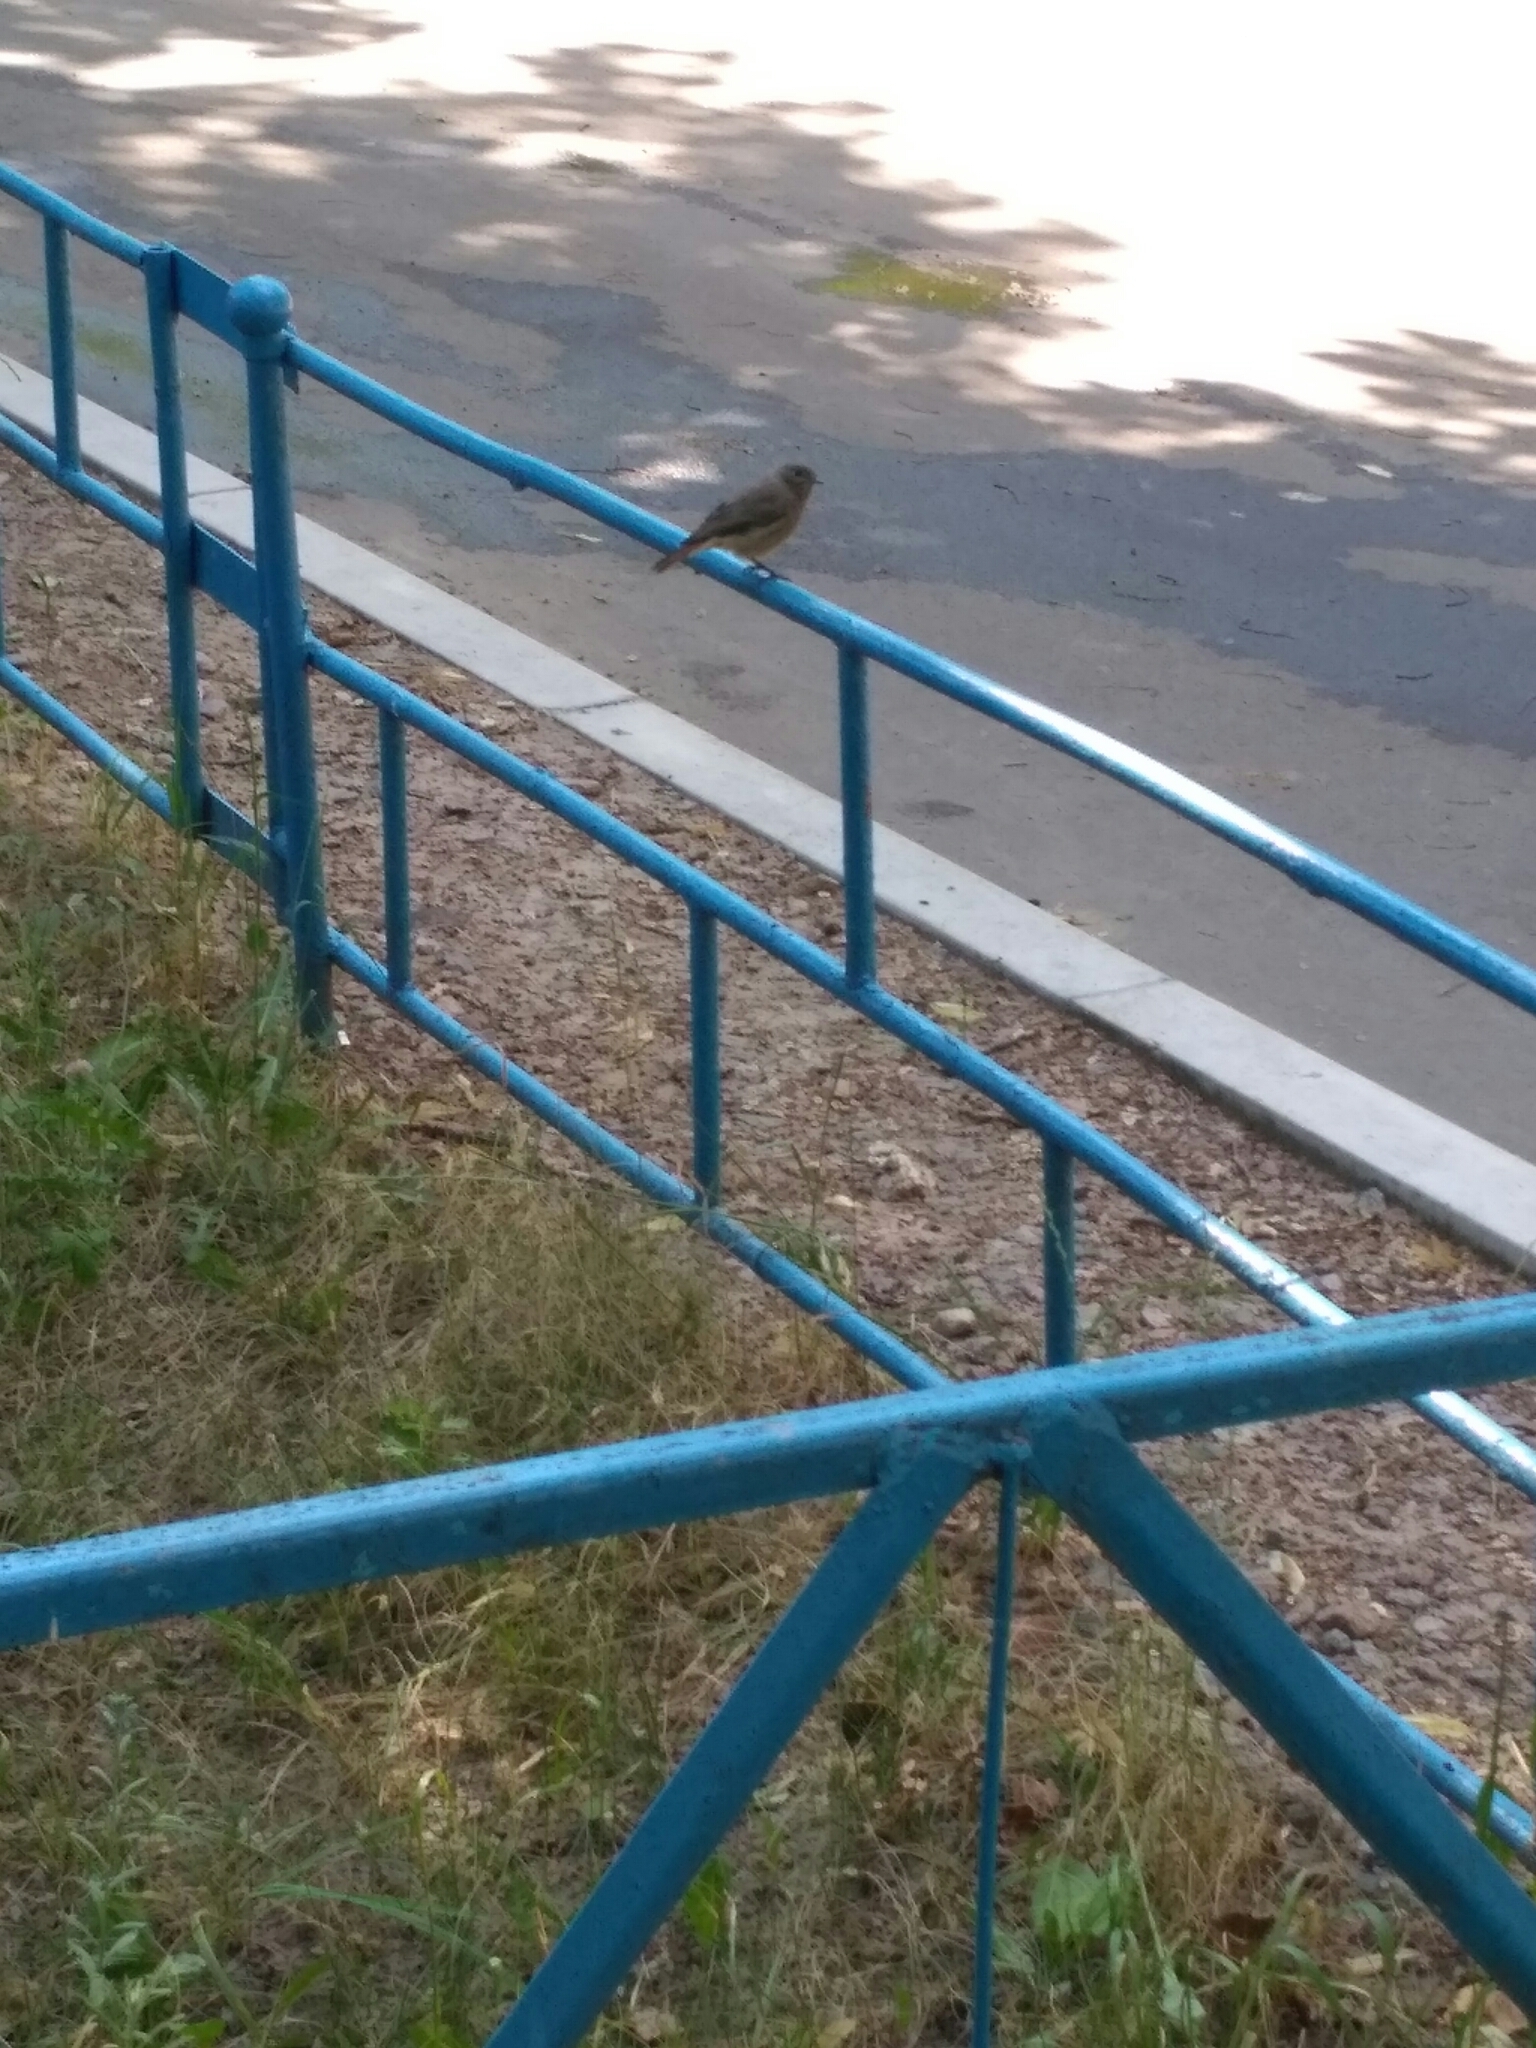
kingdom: Animalia
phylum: Chordata
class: Aves
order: Passeriformes
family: Muscicapidae
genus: Phoenicurus
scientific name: Phoenicurus ochruros
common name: Black redstart
